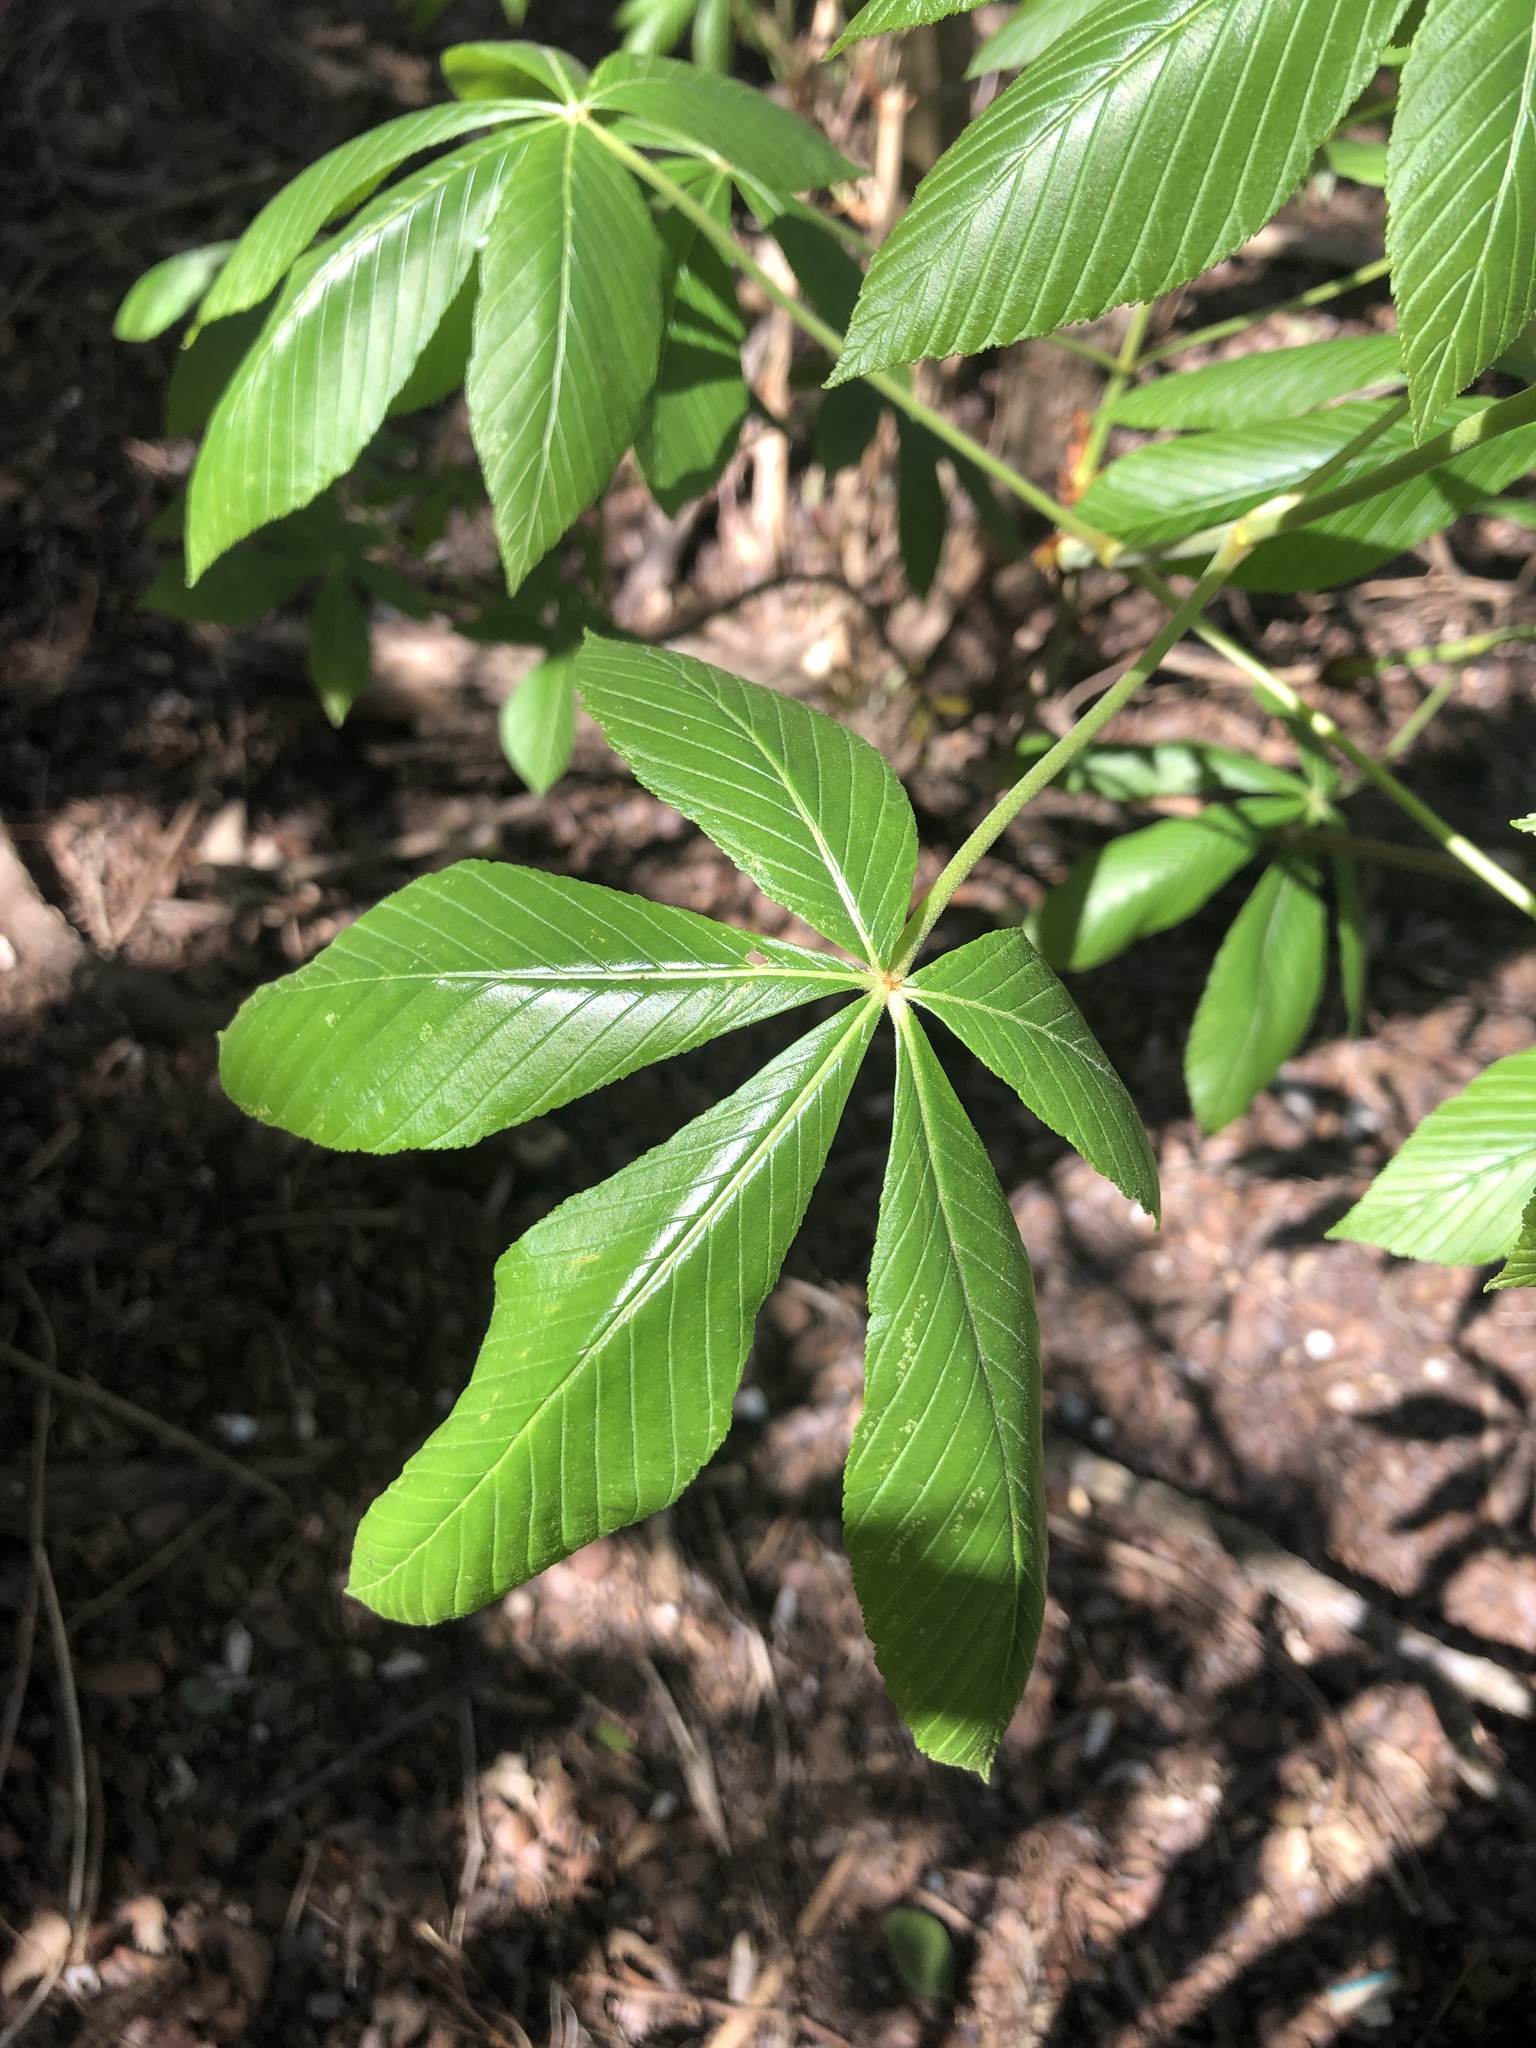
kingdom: Plantae
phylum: Tracheophyta
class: Magnoliopsida
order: Sapindales
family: Sapindaceae
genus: Aesculus
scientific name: Aesculus pavia
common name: Red buckeye
